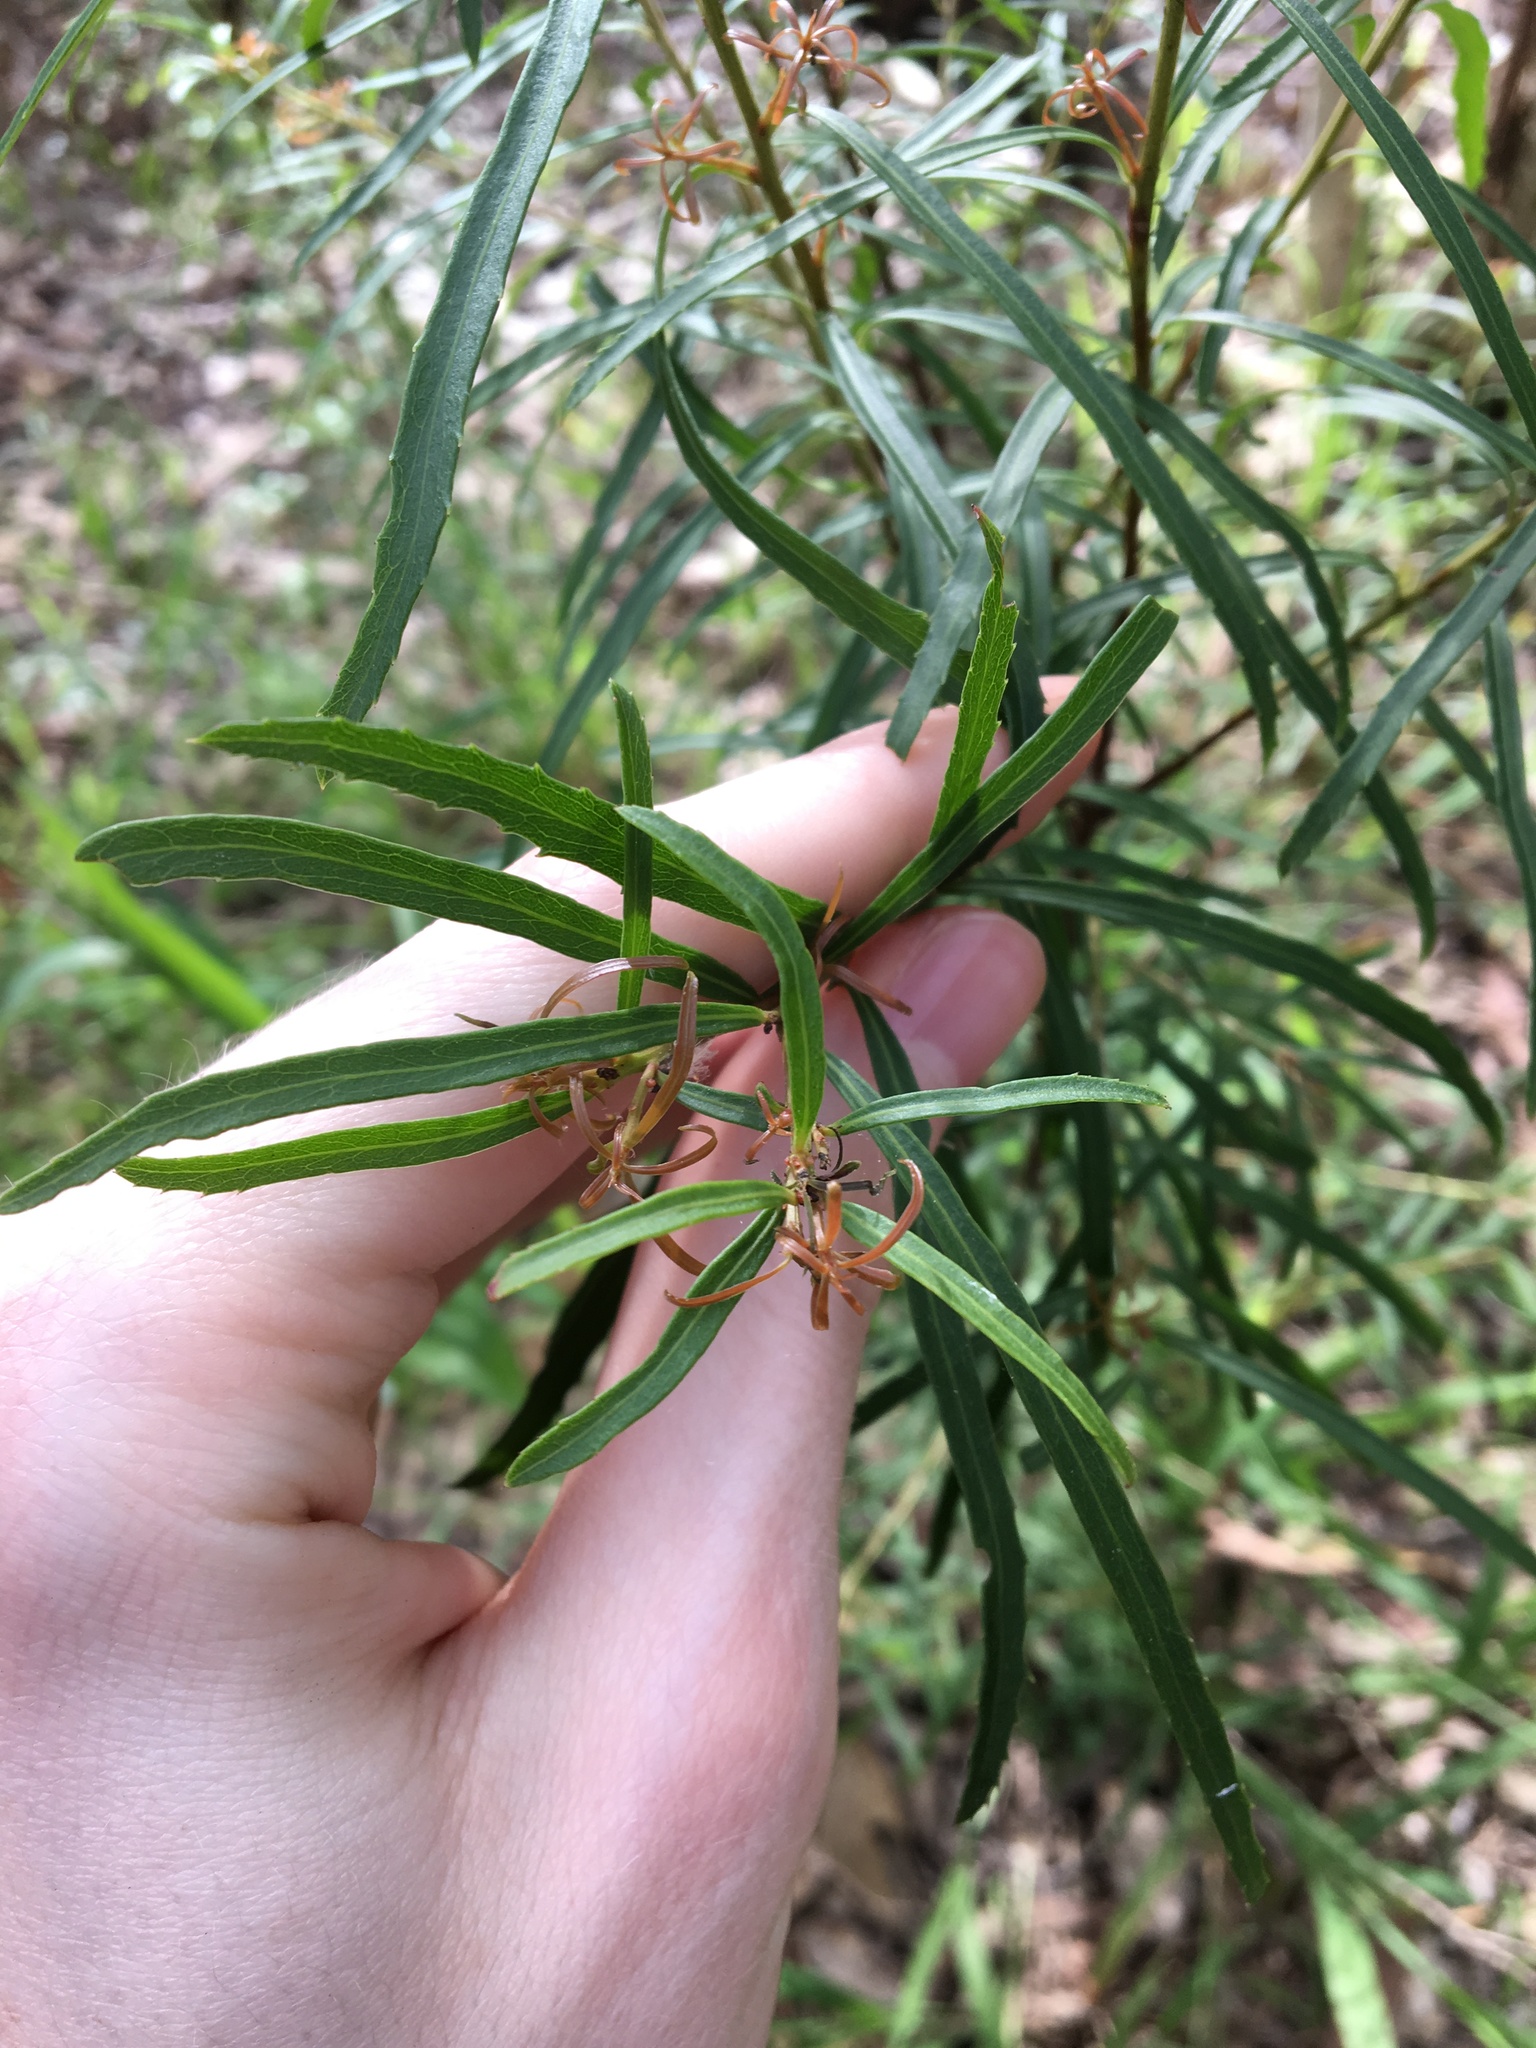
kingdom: Plantae
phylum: Tracheophyta
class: Magnoliopsida
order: Celastrales
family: Celastraceae
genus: Denhamia
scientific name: Denhamia silvestris
